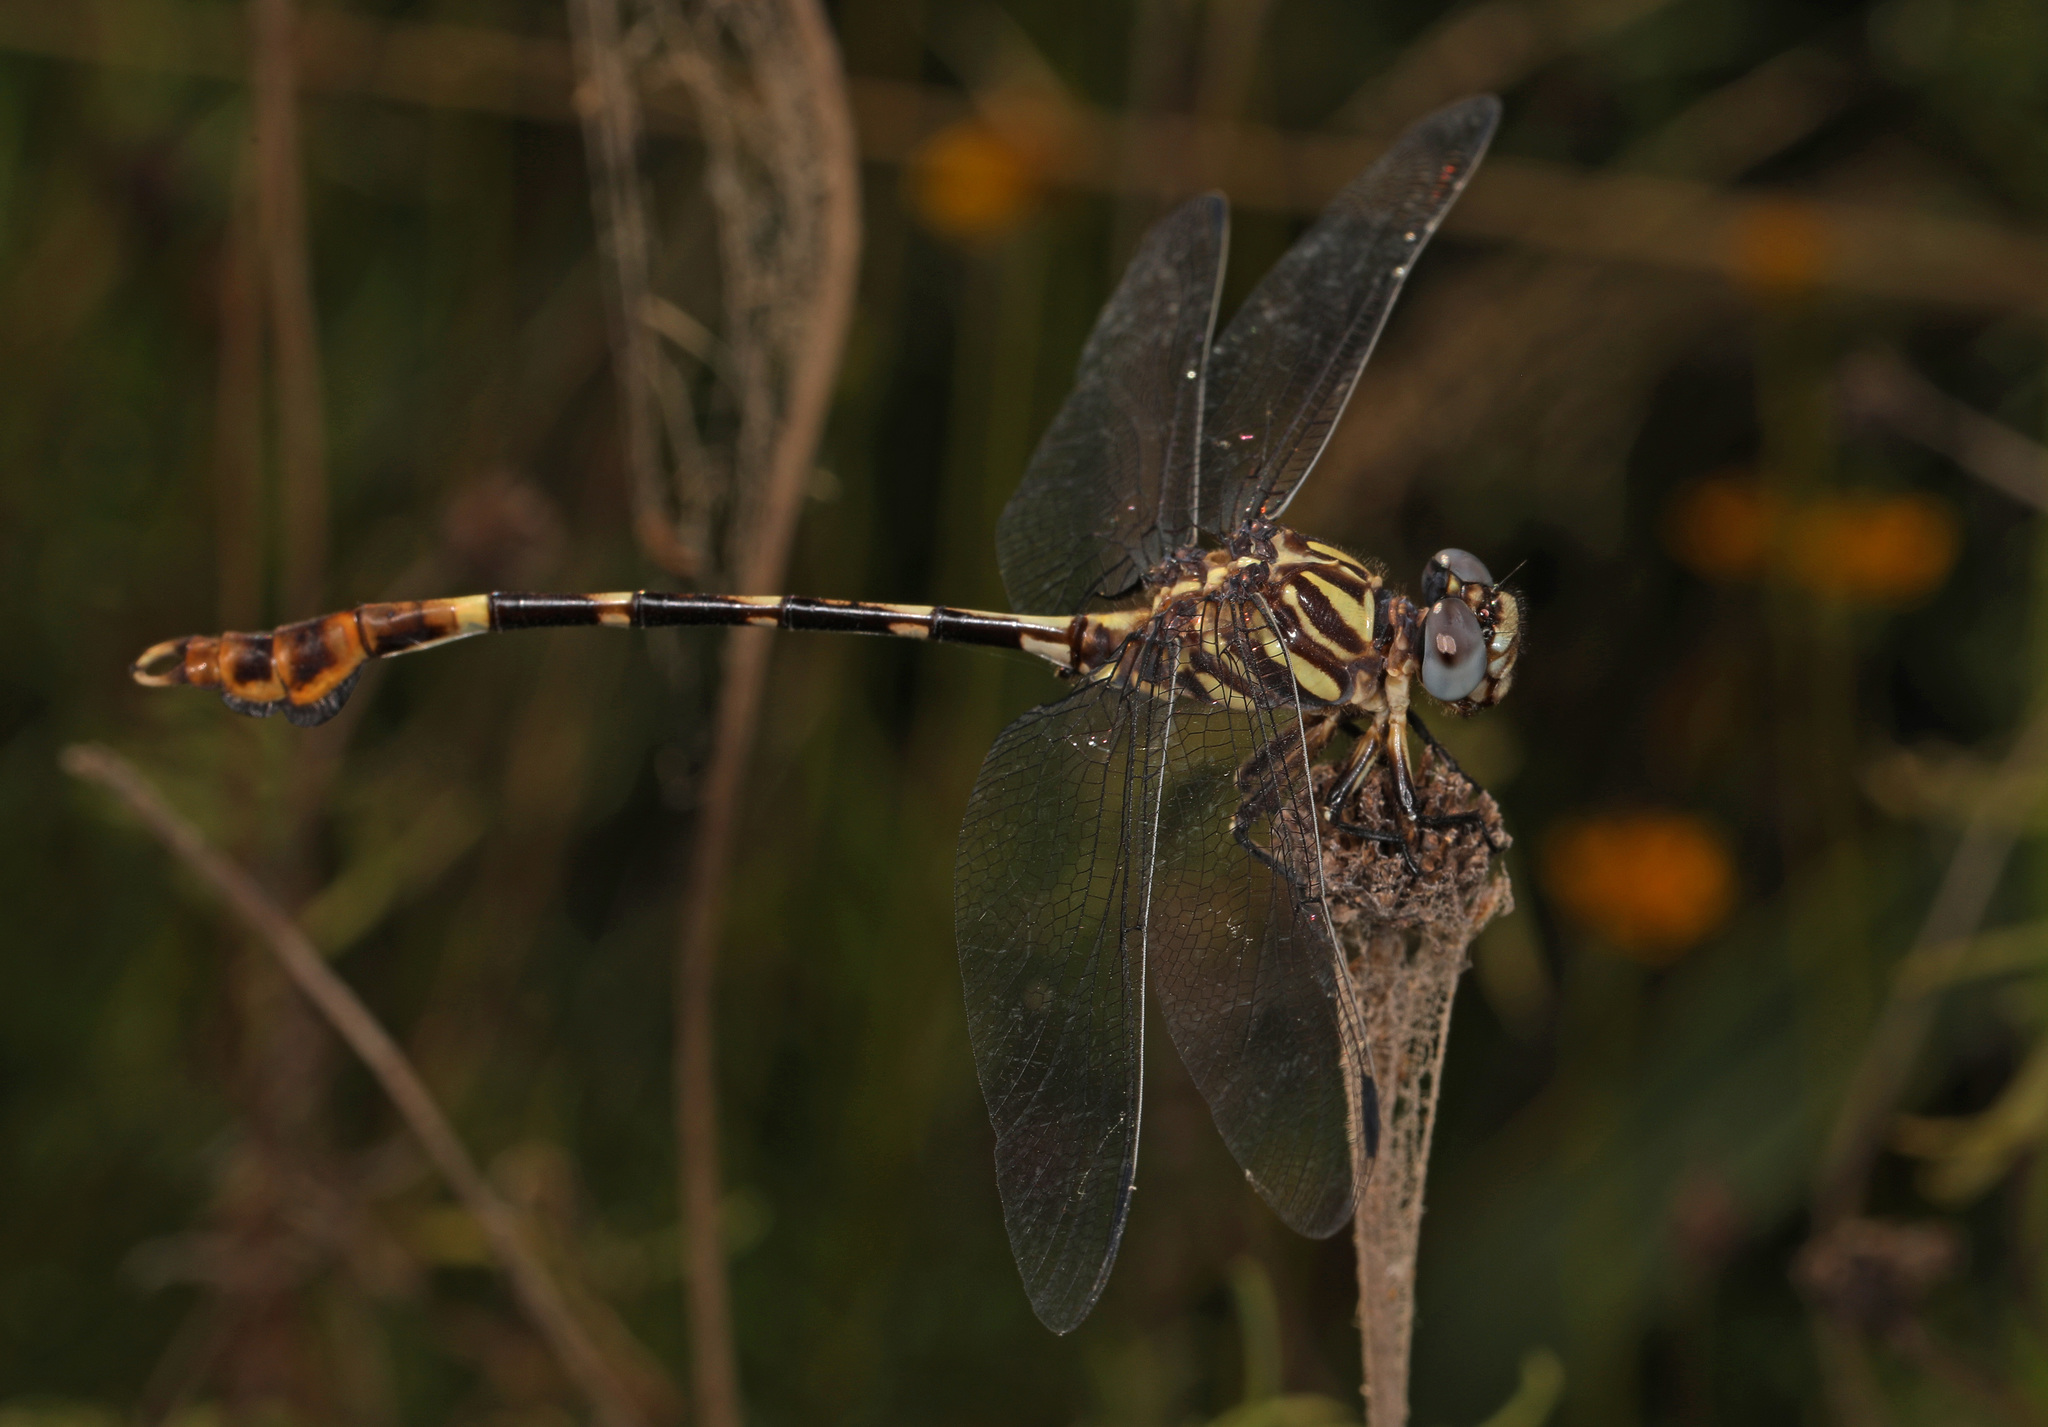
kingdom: Animalia
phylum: Arthropoda
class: Insecta
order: Odonata
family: Gomphidae
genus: Phyllogomphoides
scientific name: Phyllogomphoides albrighti
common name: Five-striped leaftail
